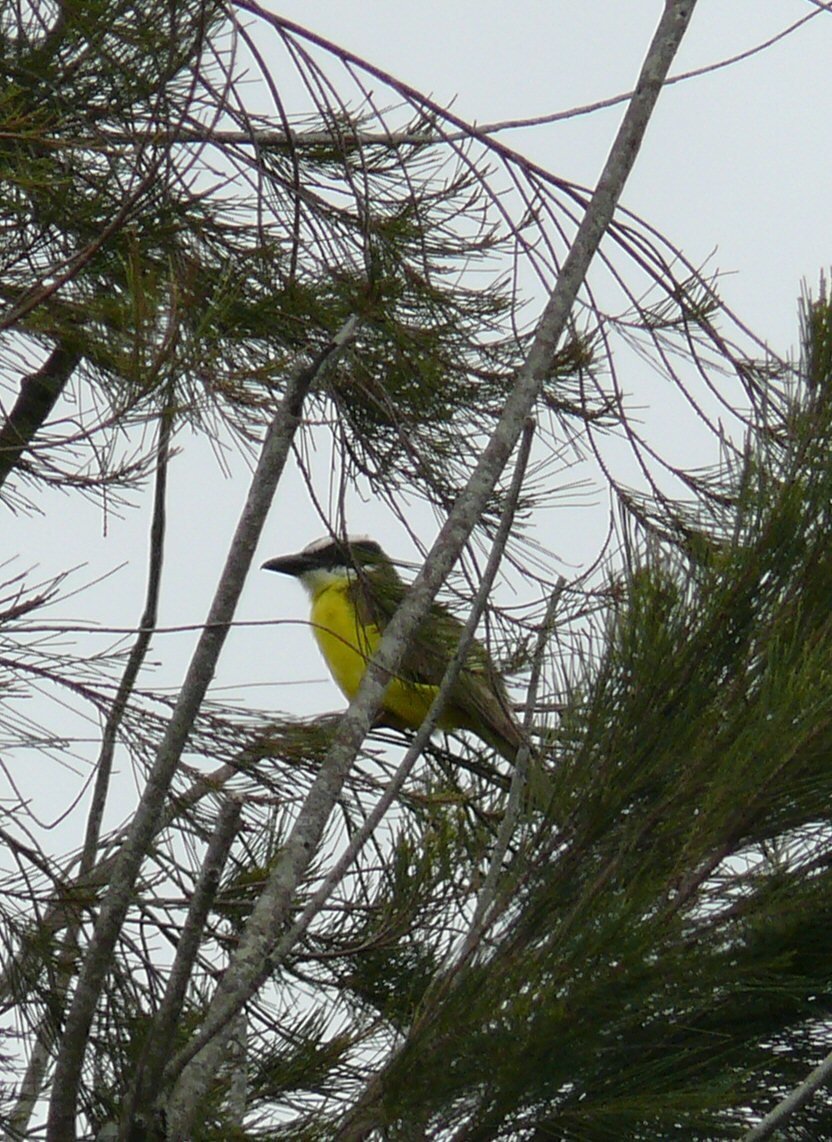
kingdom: Animalia
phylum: Chordata
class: Aves
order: Passeriformes
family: Tyrannidae
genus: Pitangus
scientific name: Pitangus sulphuratus
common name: Great kiskadee
